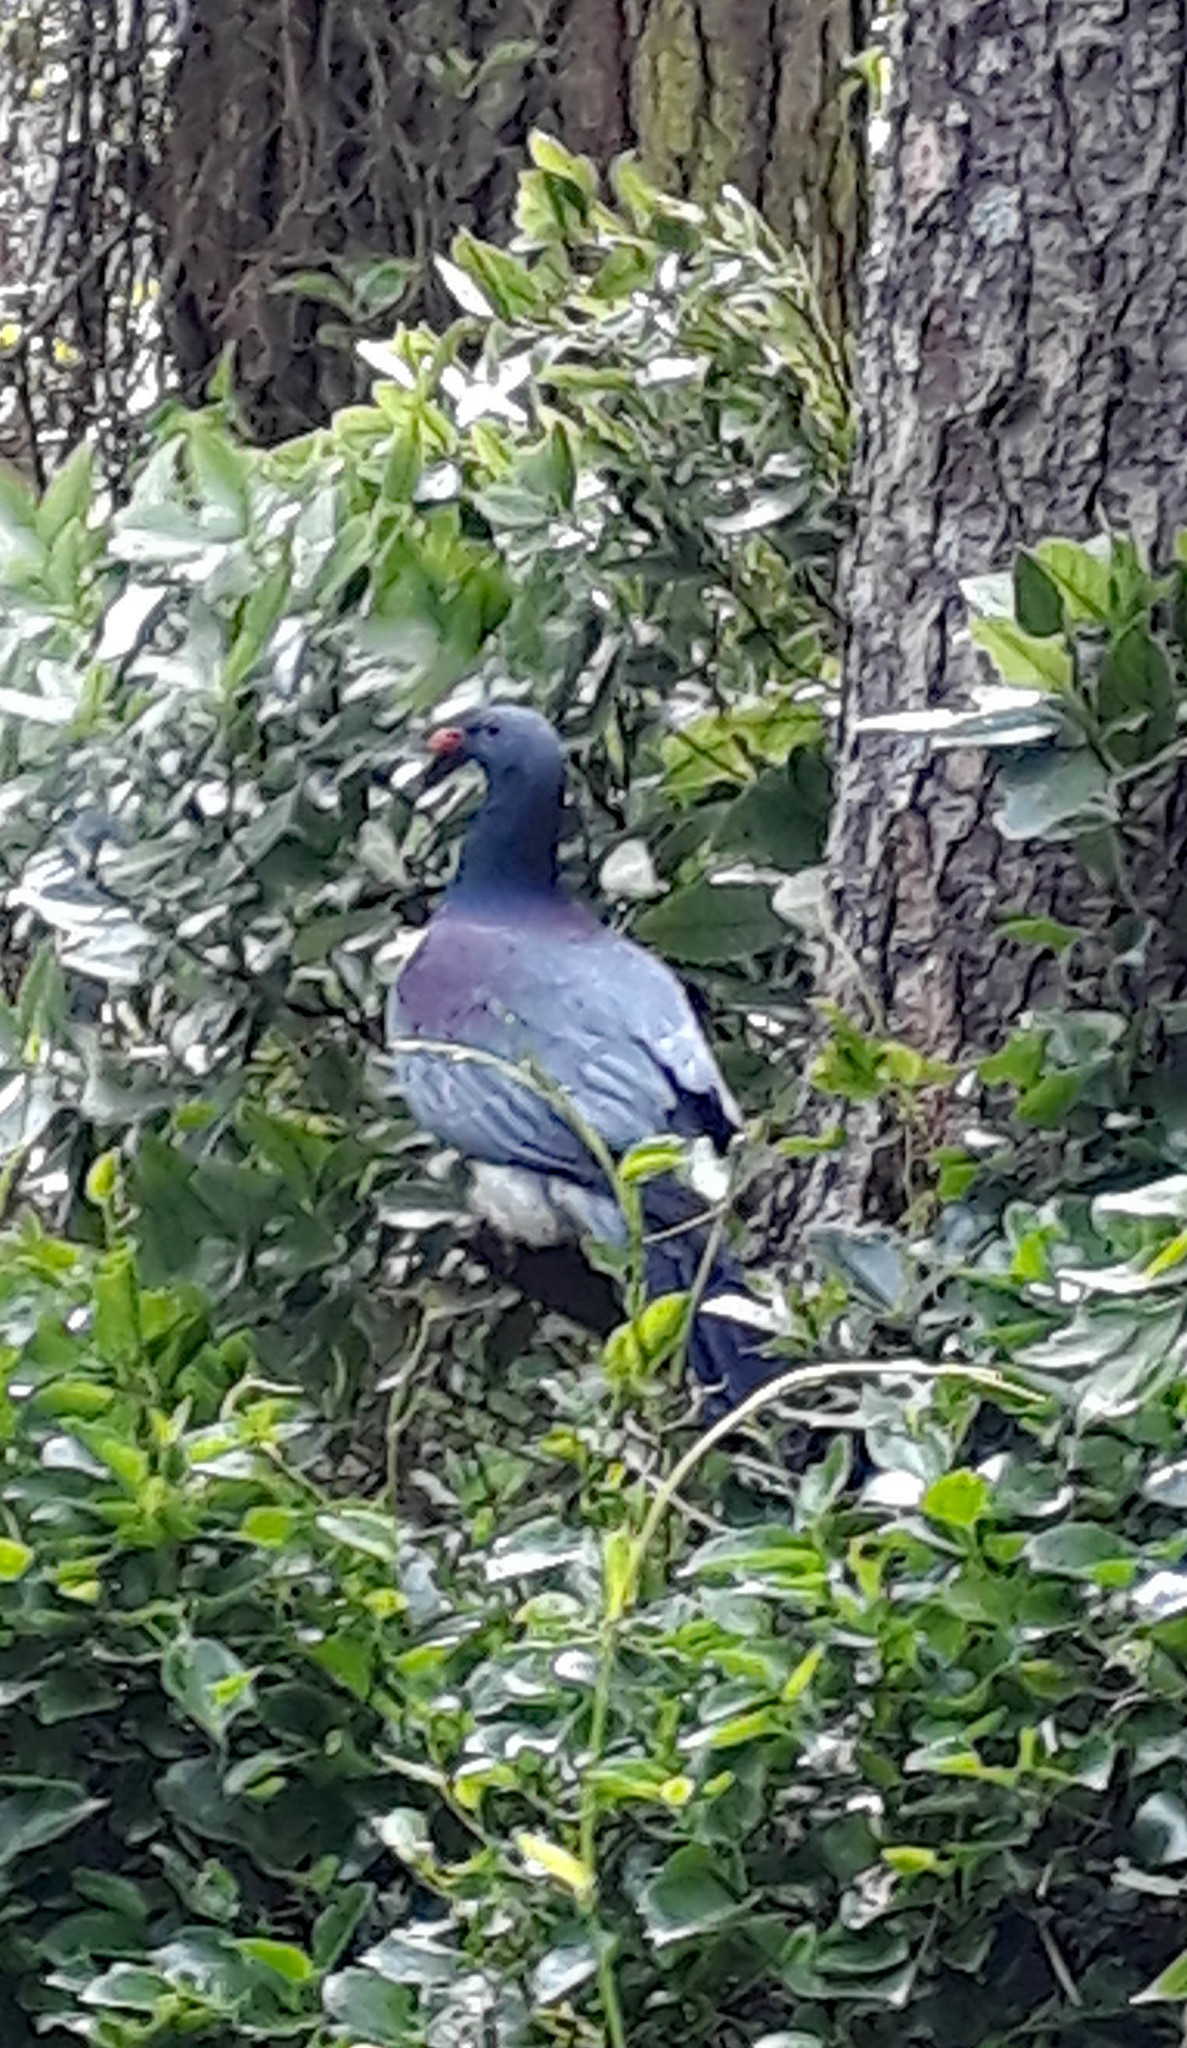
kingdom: Animalia
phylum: Chordata
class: Aves
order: Columbiformes
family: Columbidae
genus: Hemiphaga
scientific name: Hemiphaga chathamensis
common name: Chatham pigeon
